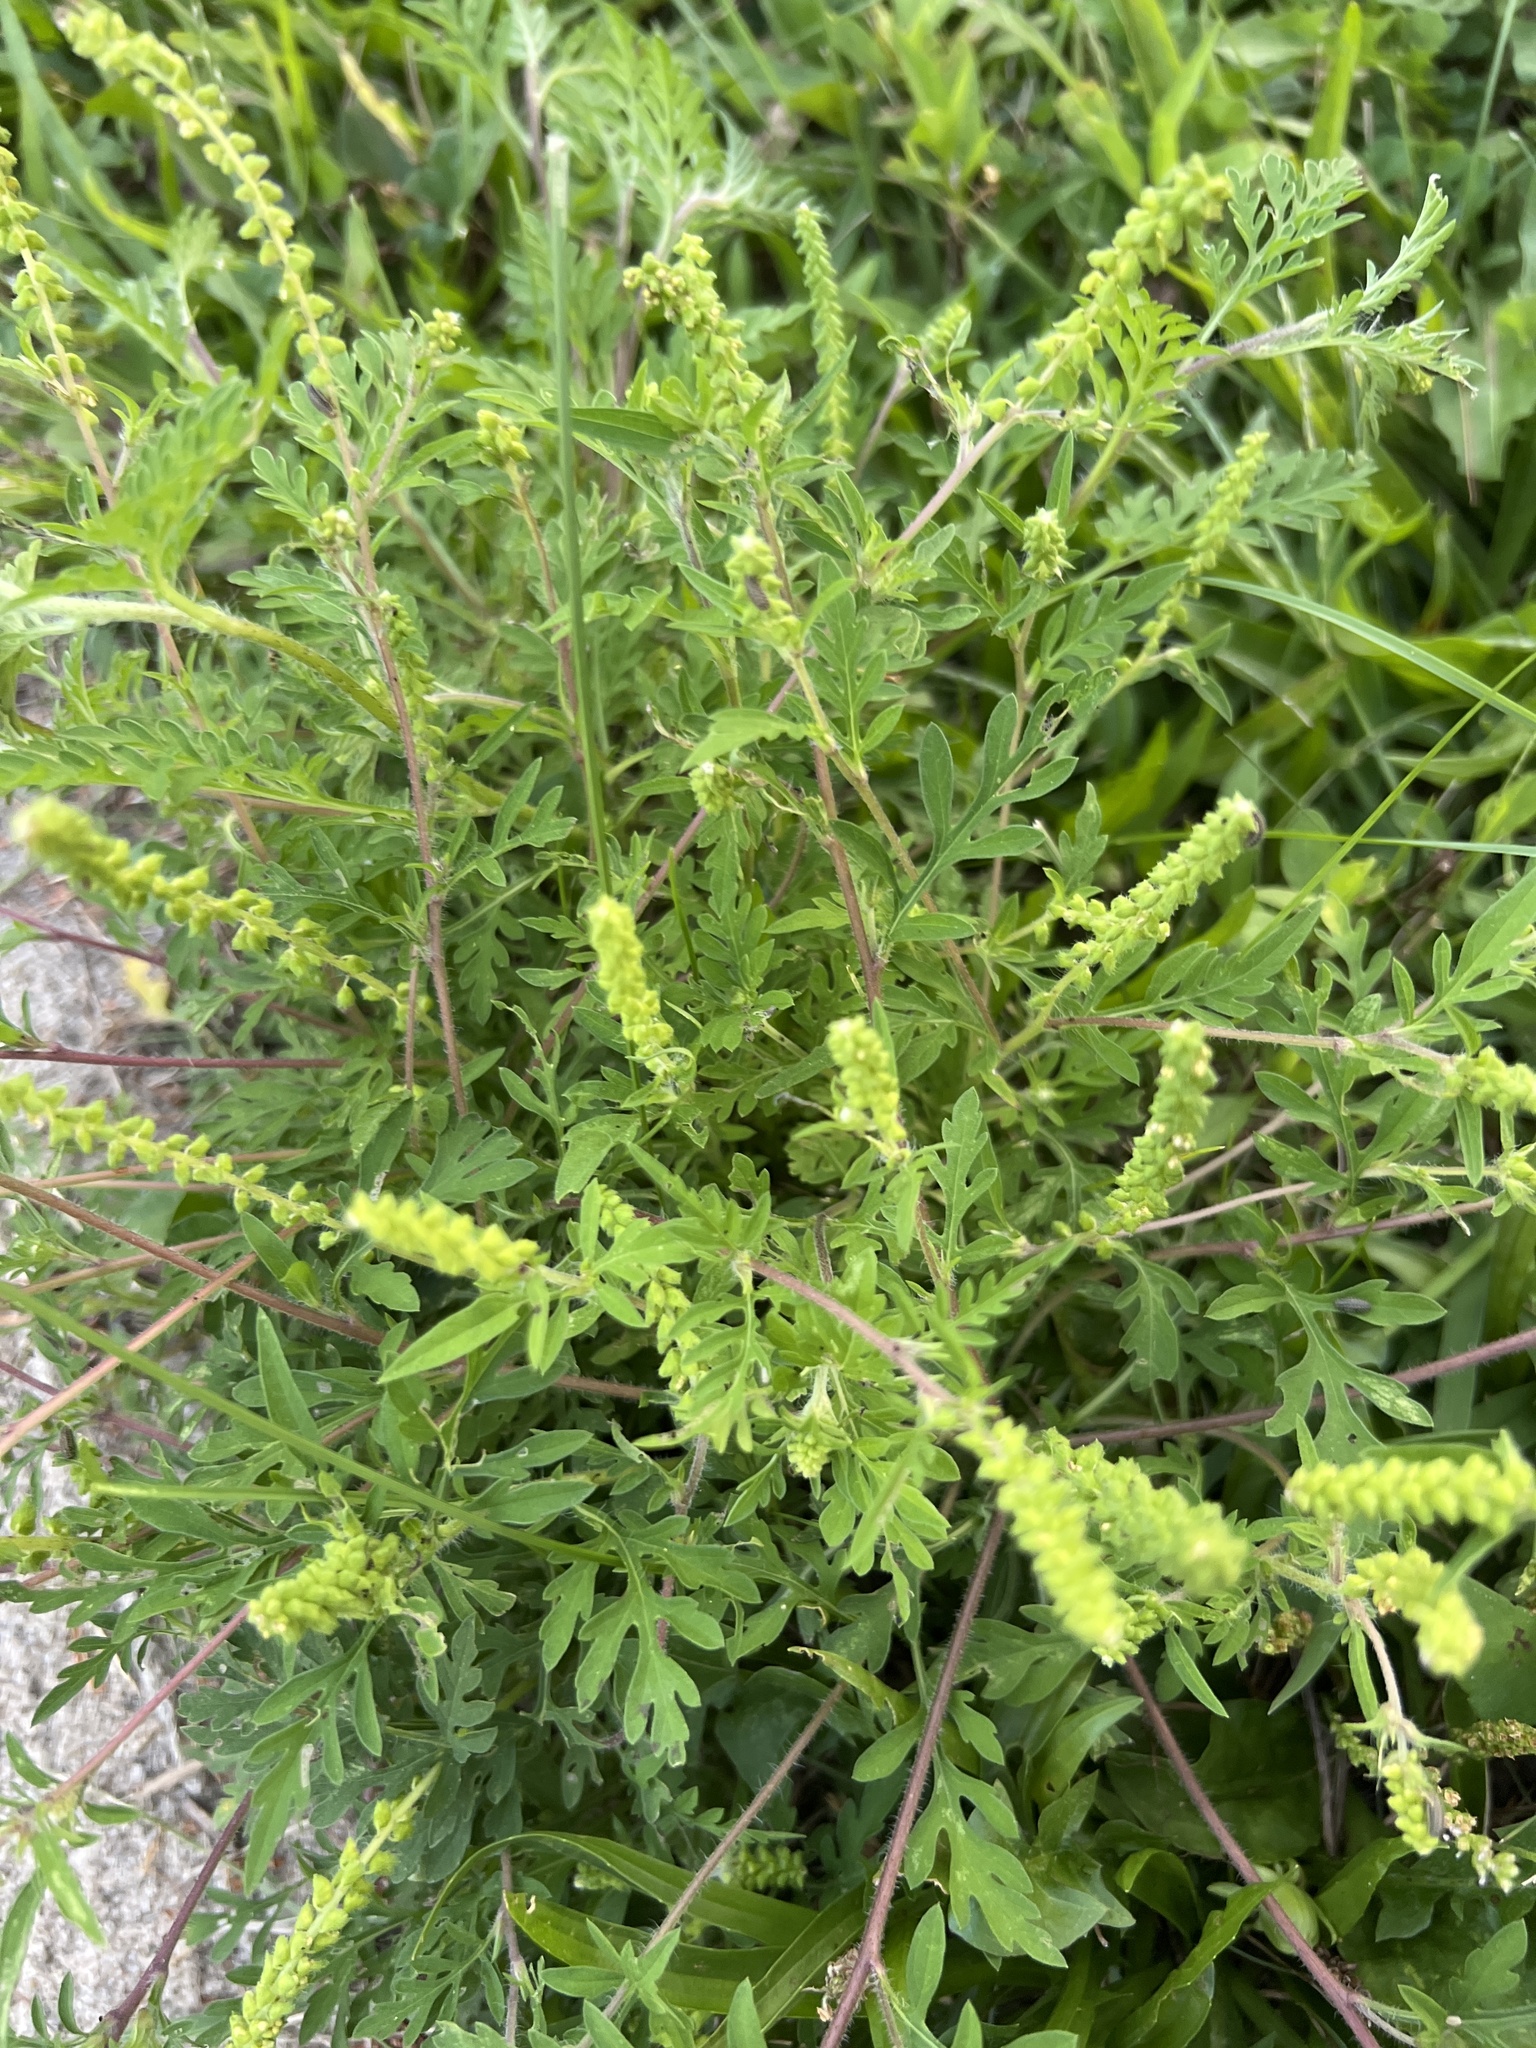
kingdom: Plantae
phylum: Tracheophyta
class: Magnoliopsida
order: Asterales
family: Asteraceae
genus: Ambrosia
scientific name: Ambrosia artemisiifolia
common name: Annual ragweed
